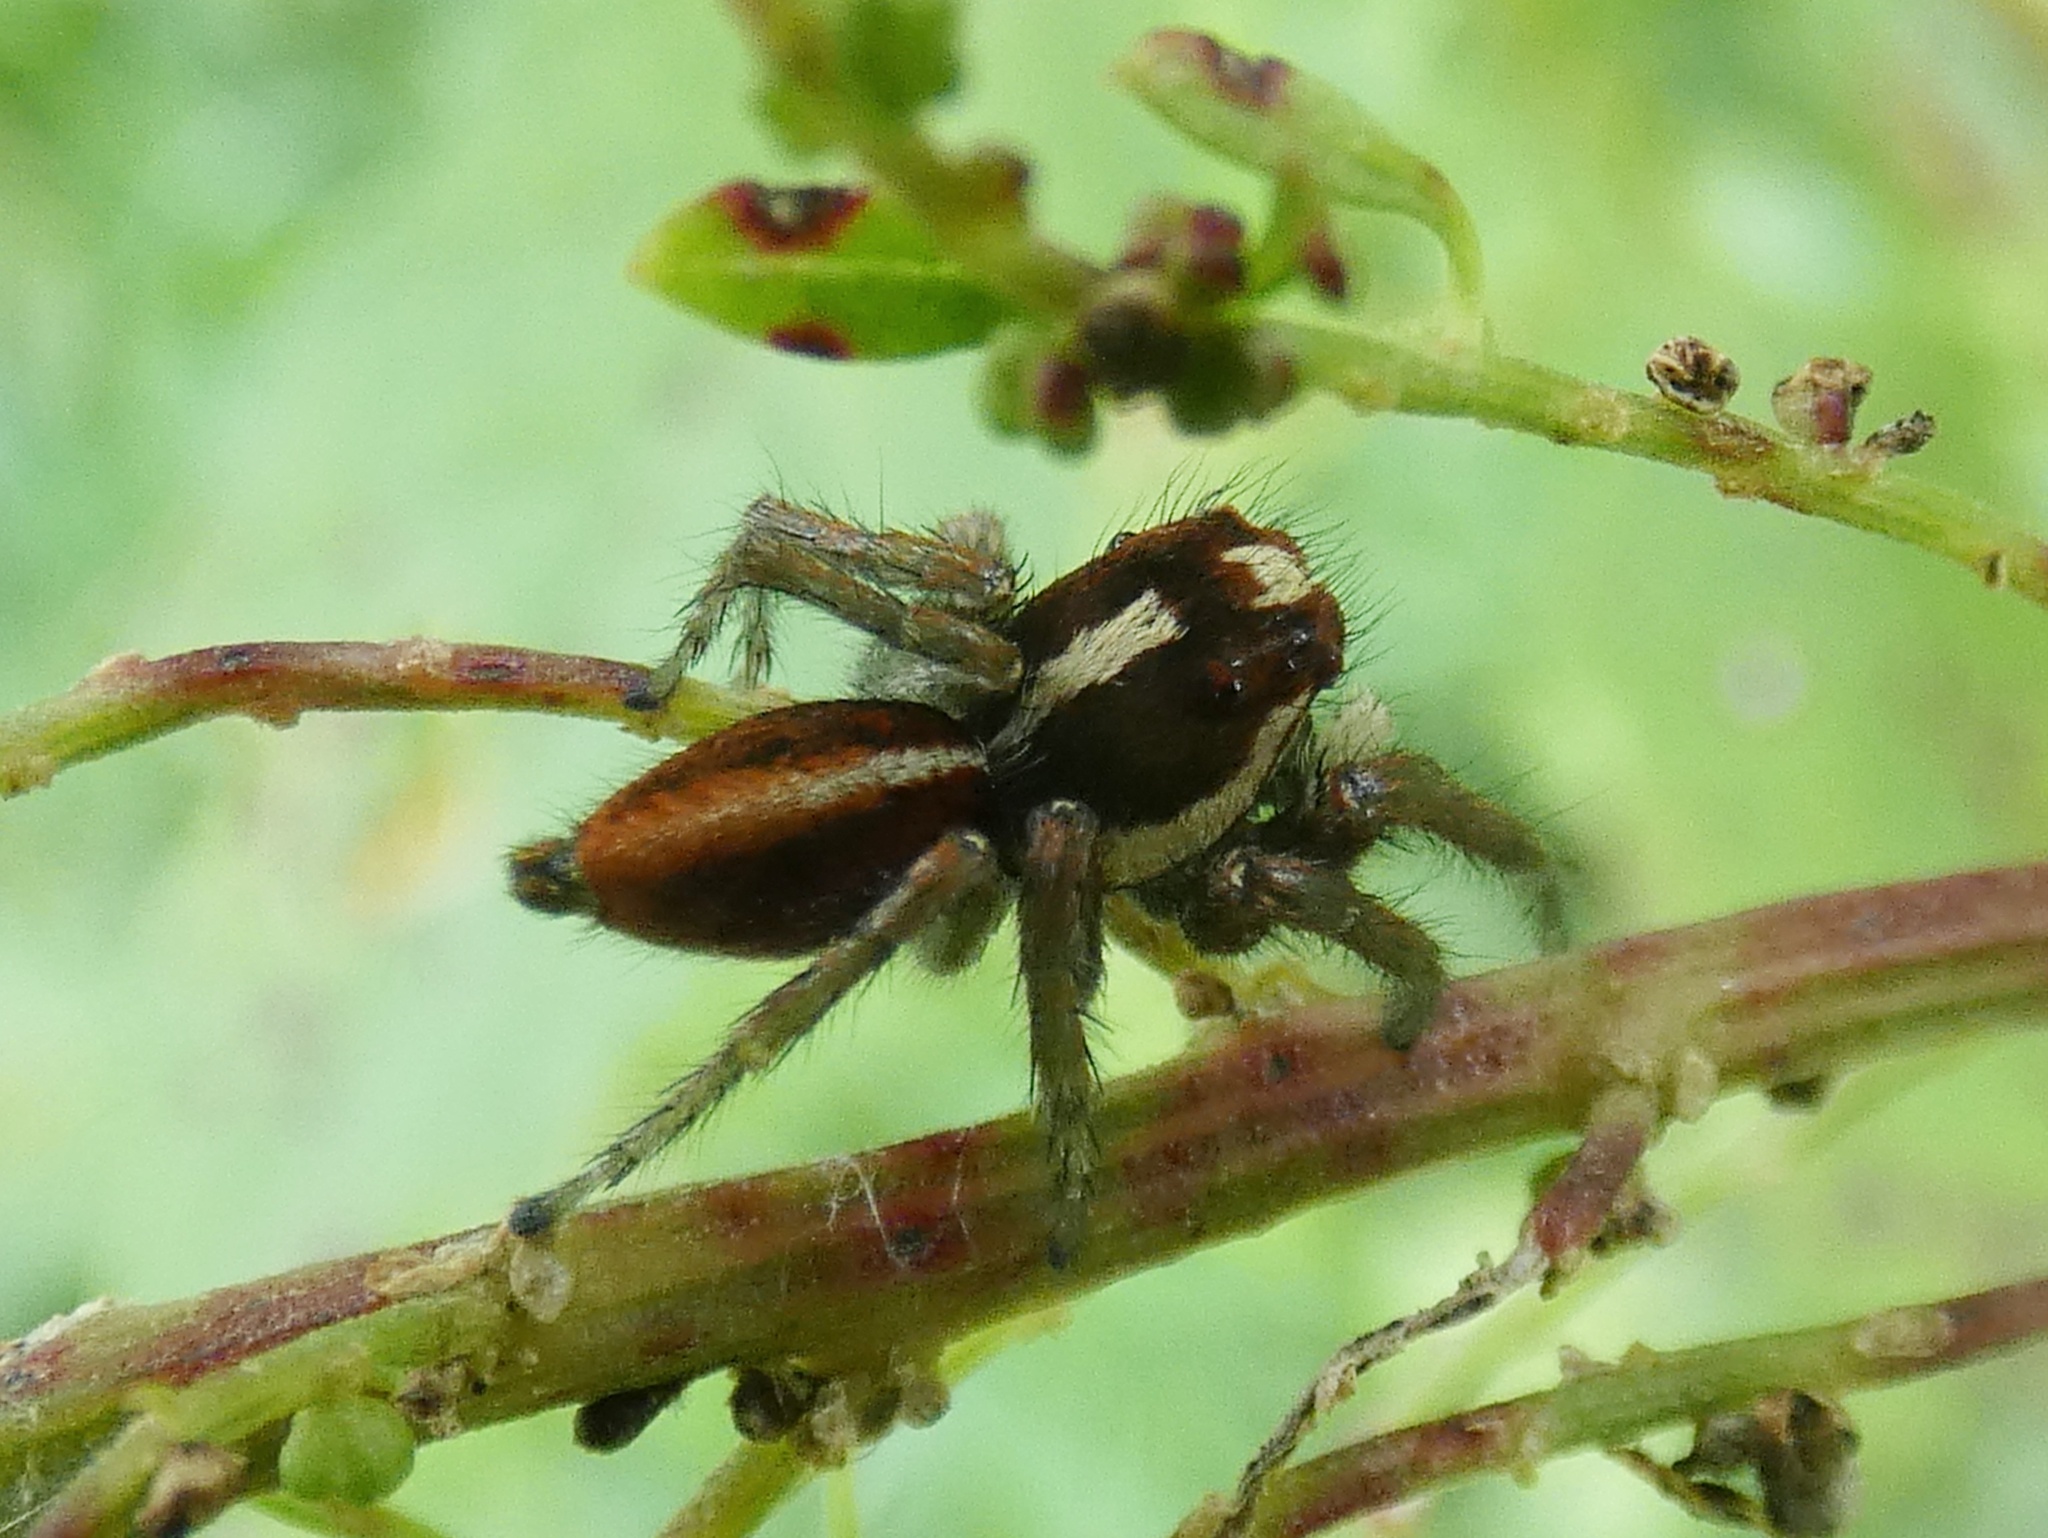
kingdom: Animalia
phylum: Arthropoda
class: Arachnida
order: Araneae
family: Salticidae
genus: Frigga
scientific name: Frigga crocuta
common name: Jumping spiders
